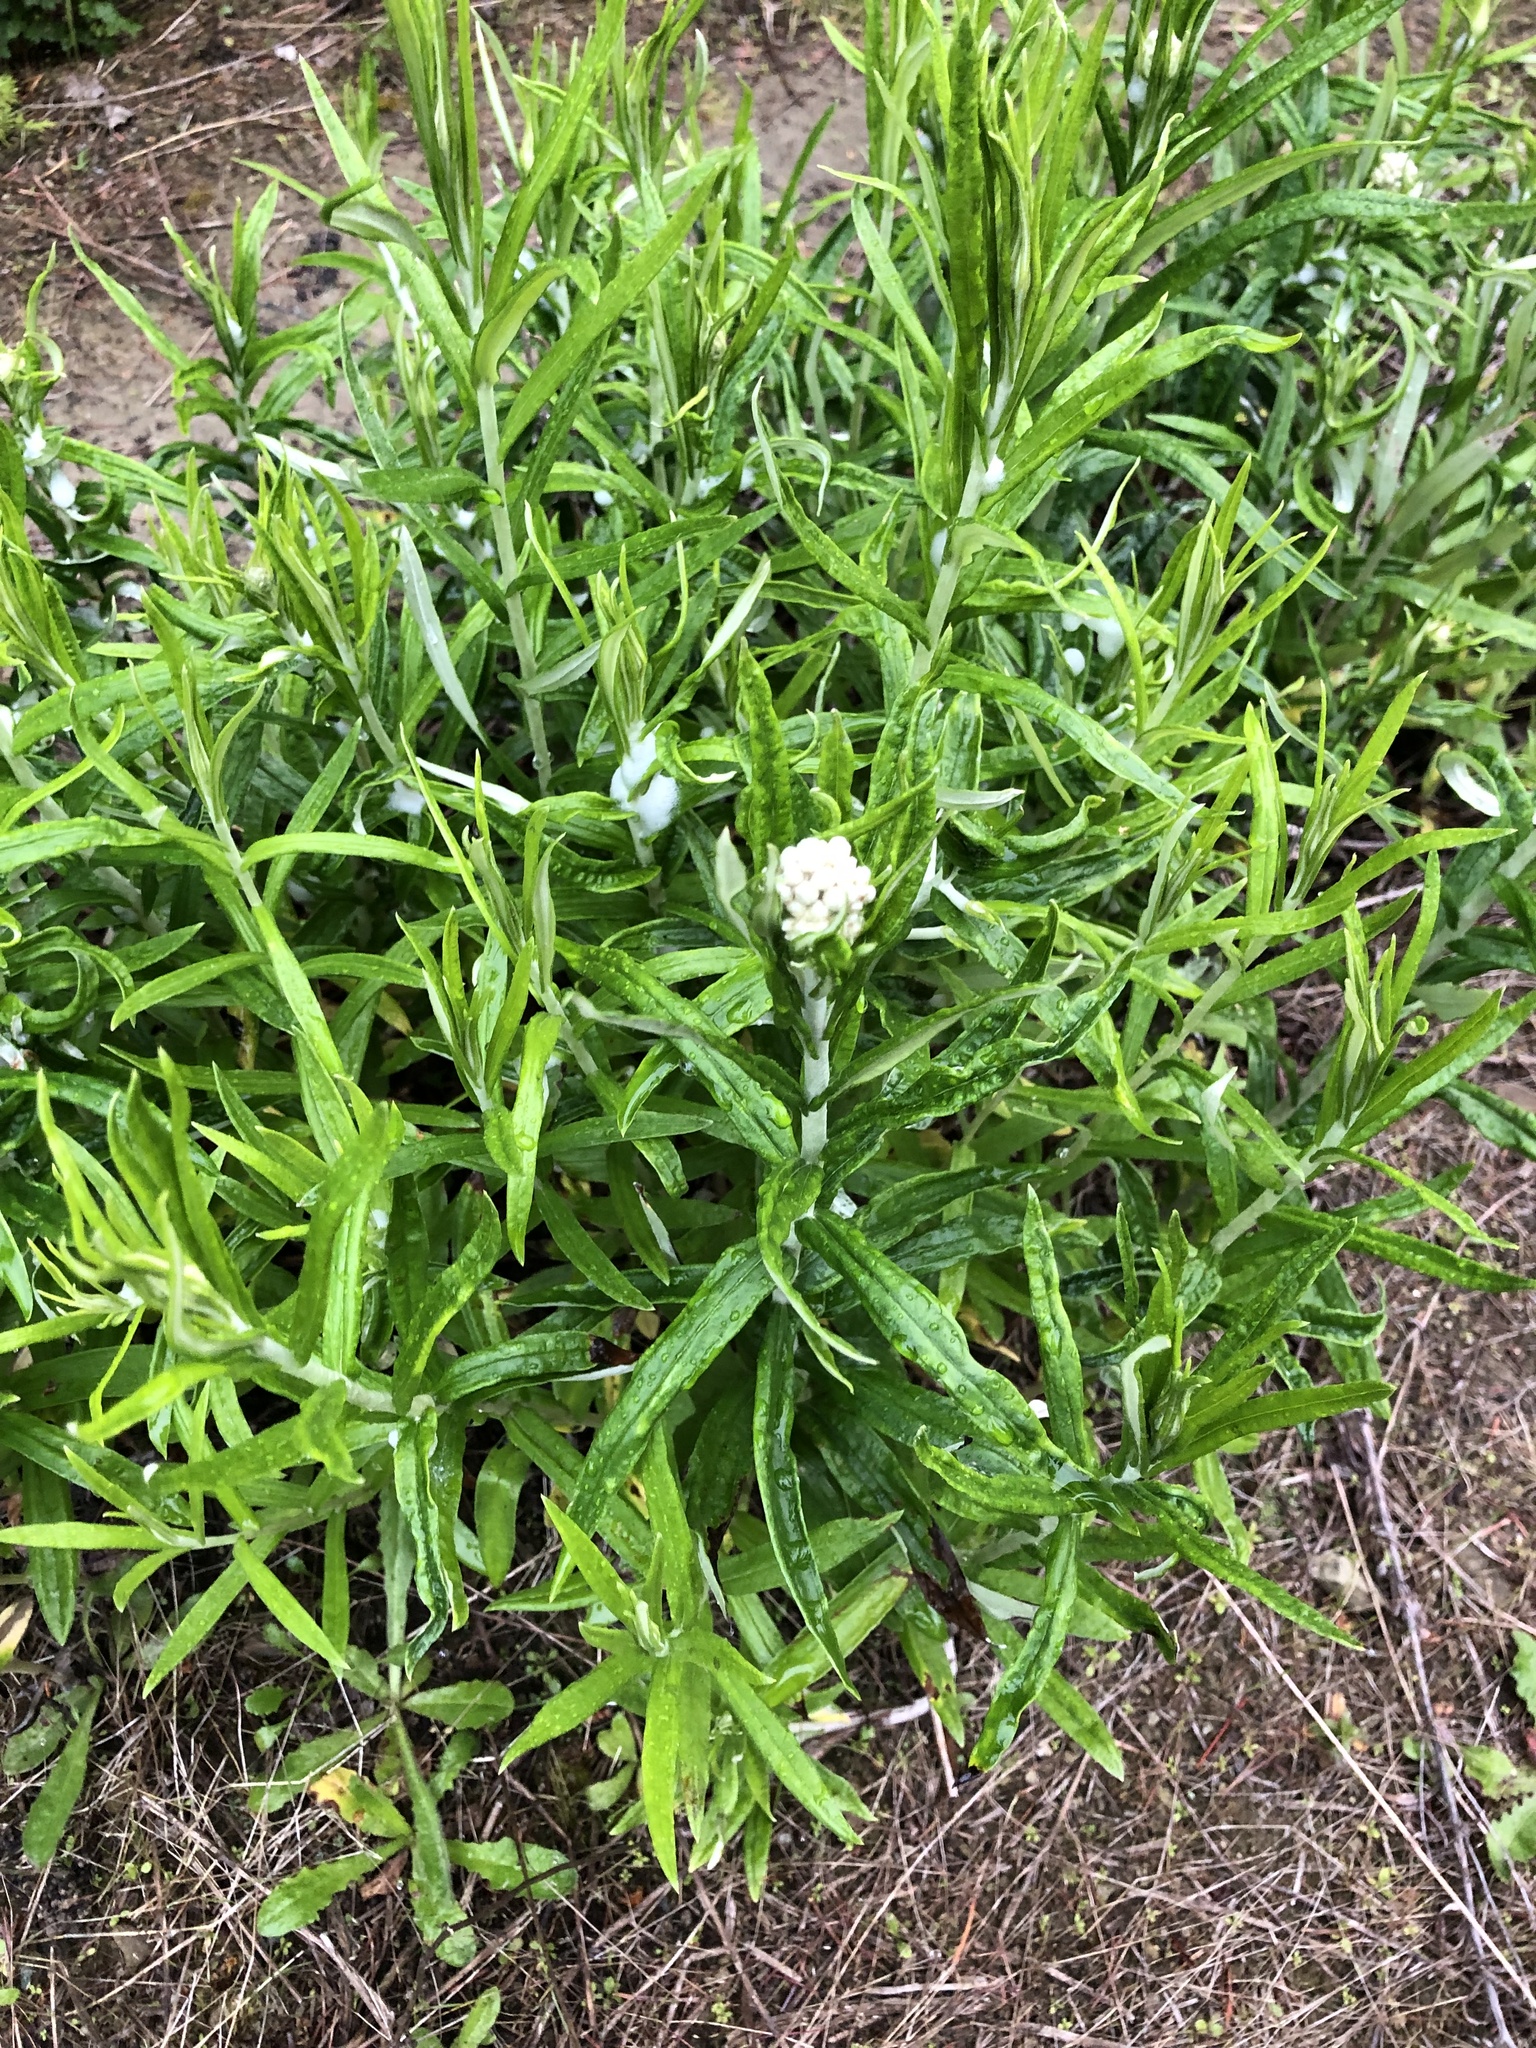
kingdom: Plantae
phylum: Tracheophyta
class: Magnoliopsida
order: Asterales
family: Asteraceae
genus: Anaphalis
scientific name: Anaphalis margaritacea
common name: Pearly everlasting
